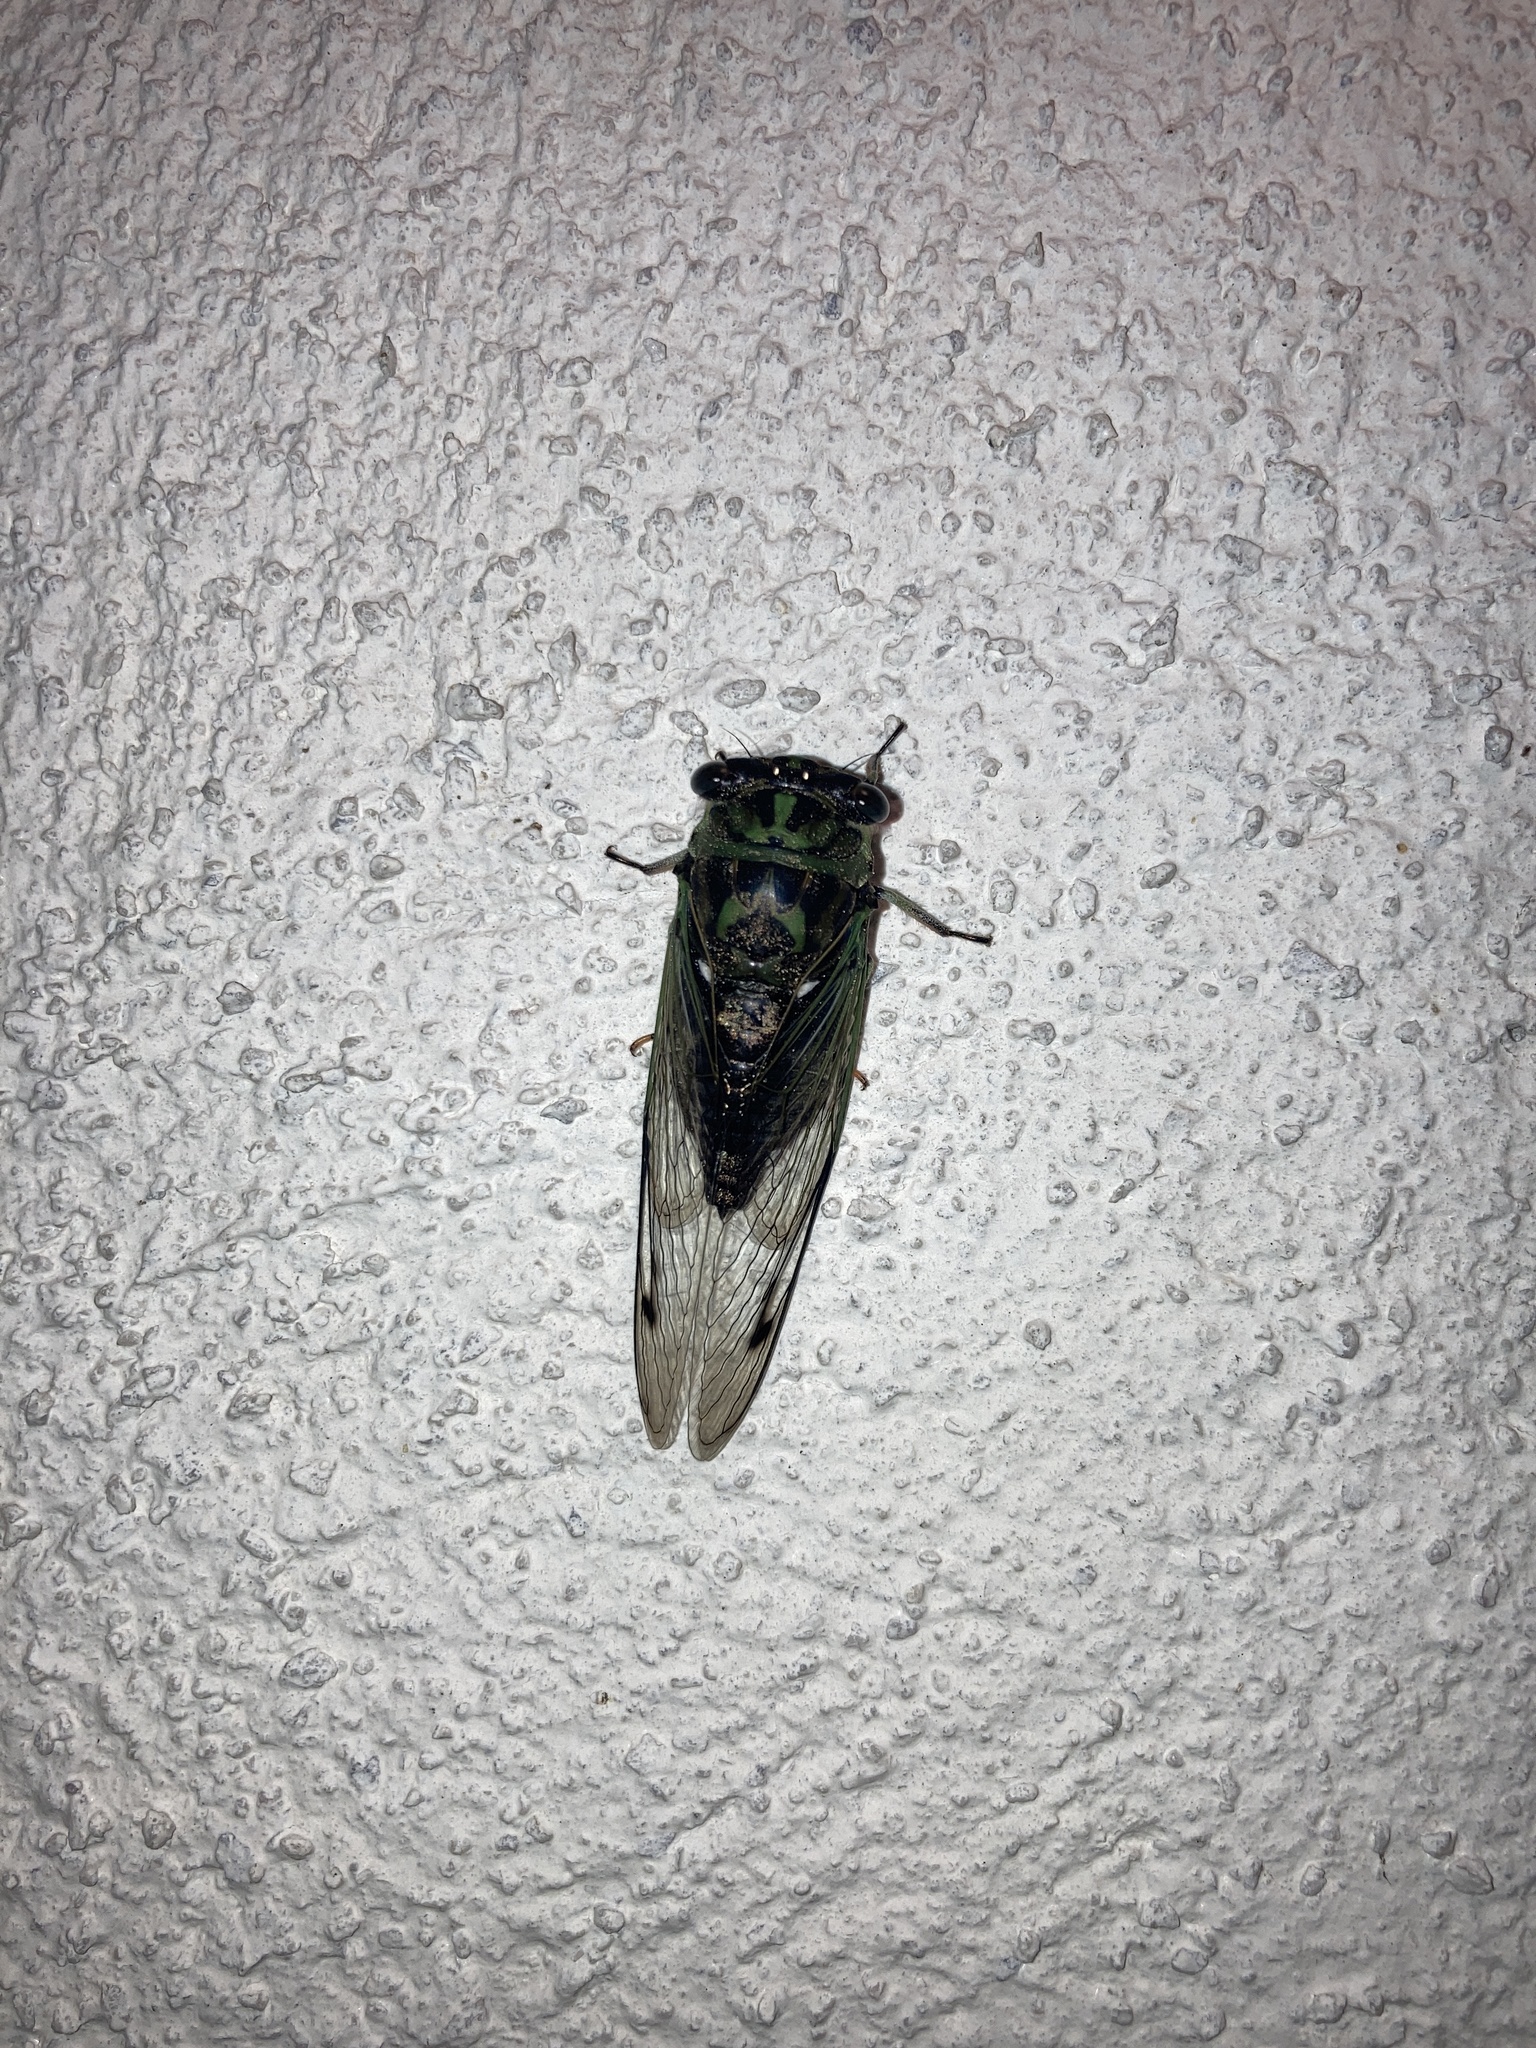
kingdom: Animalia
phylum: Arthropoda
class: Insecta
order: Hemiptera
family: Cicadidae
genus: Neotibicen
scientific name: Neotibicen linnei
